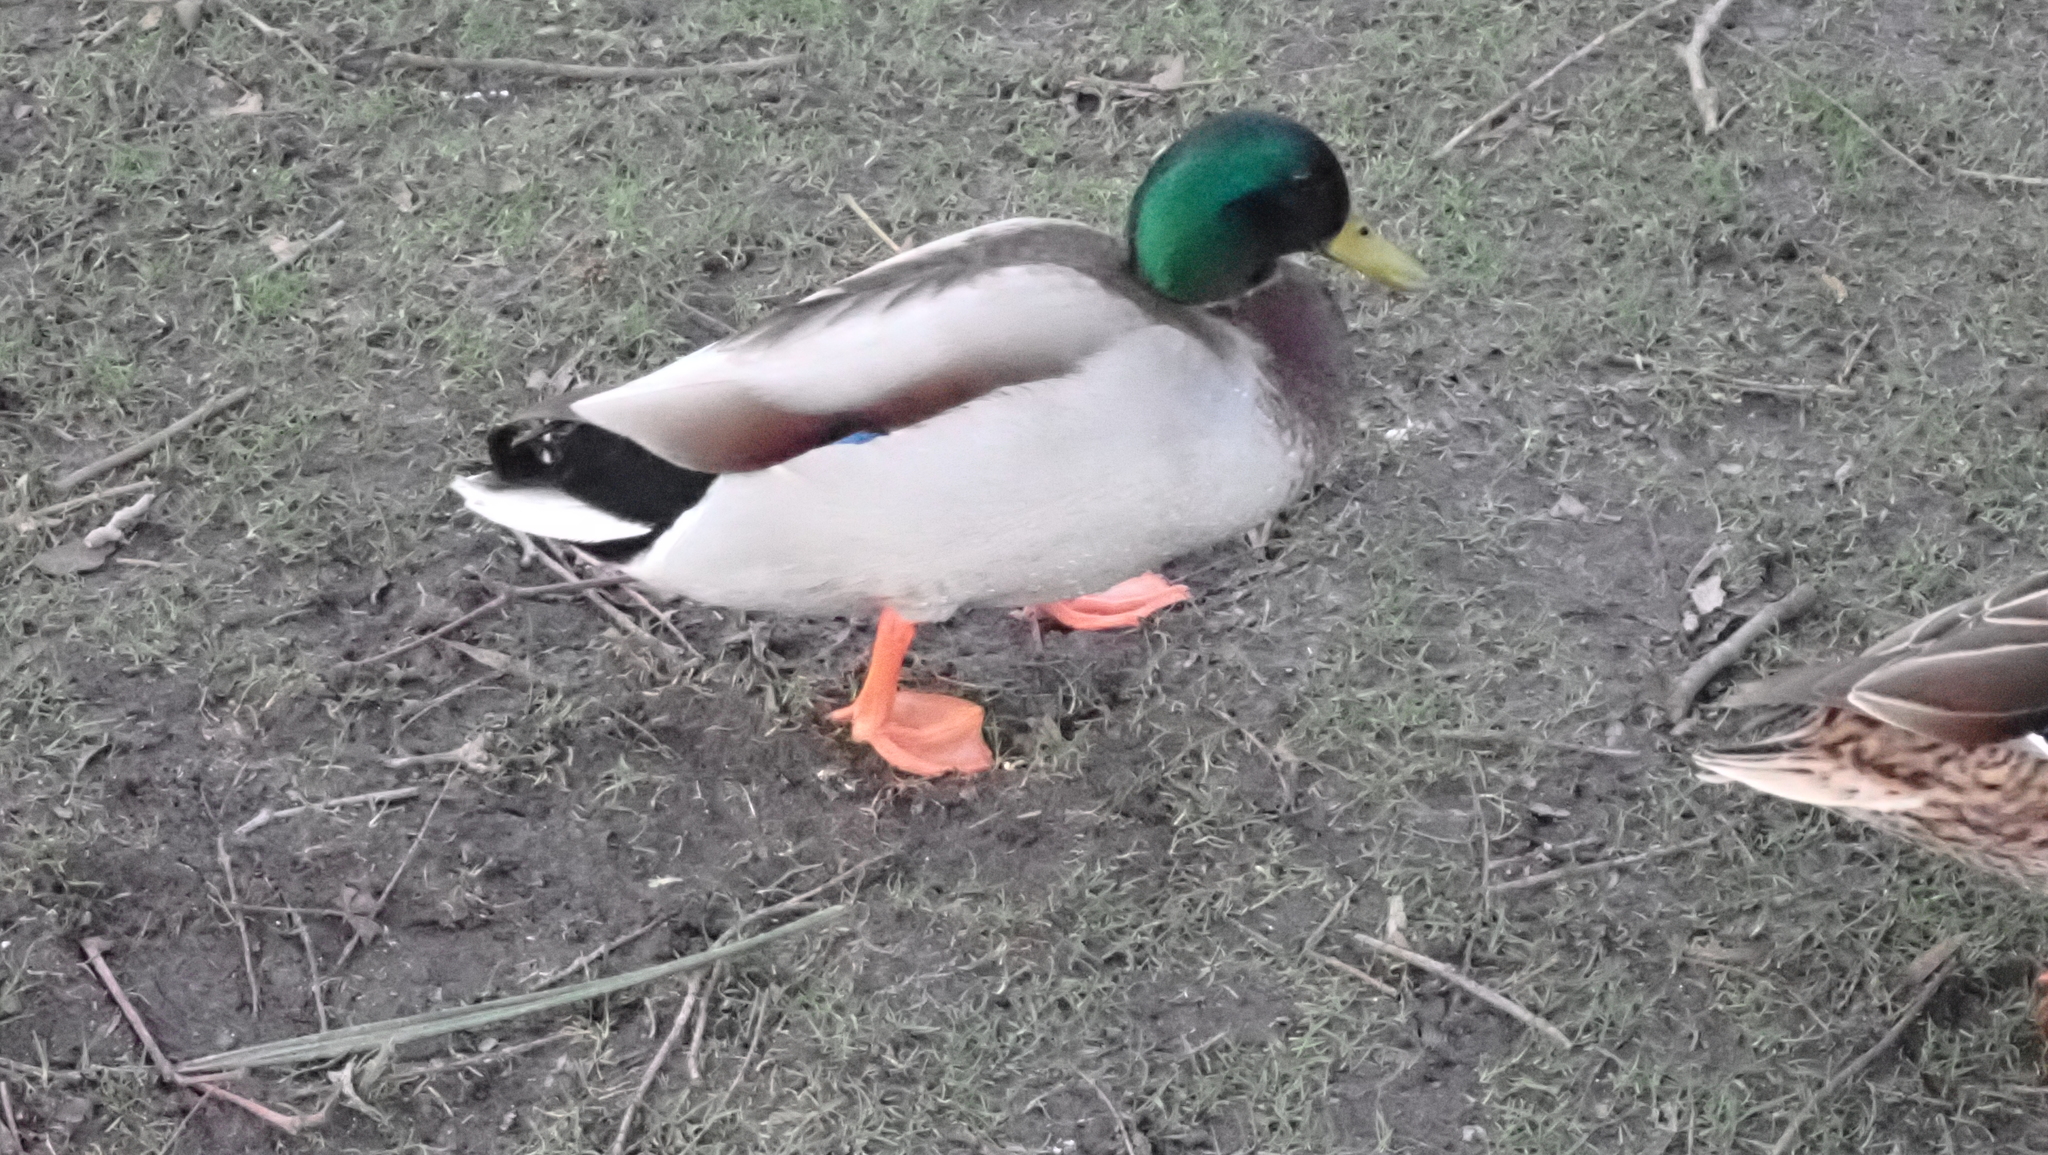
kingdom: Animalia
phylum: Chordata
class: Aves
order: Anseriformes
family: Anatidae
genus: Anas
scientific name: Anas platyrhynchos
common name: Mallard
